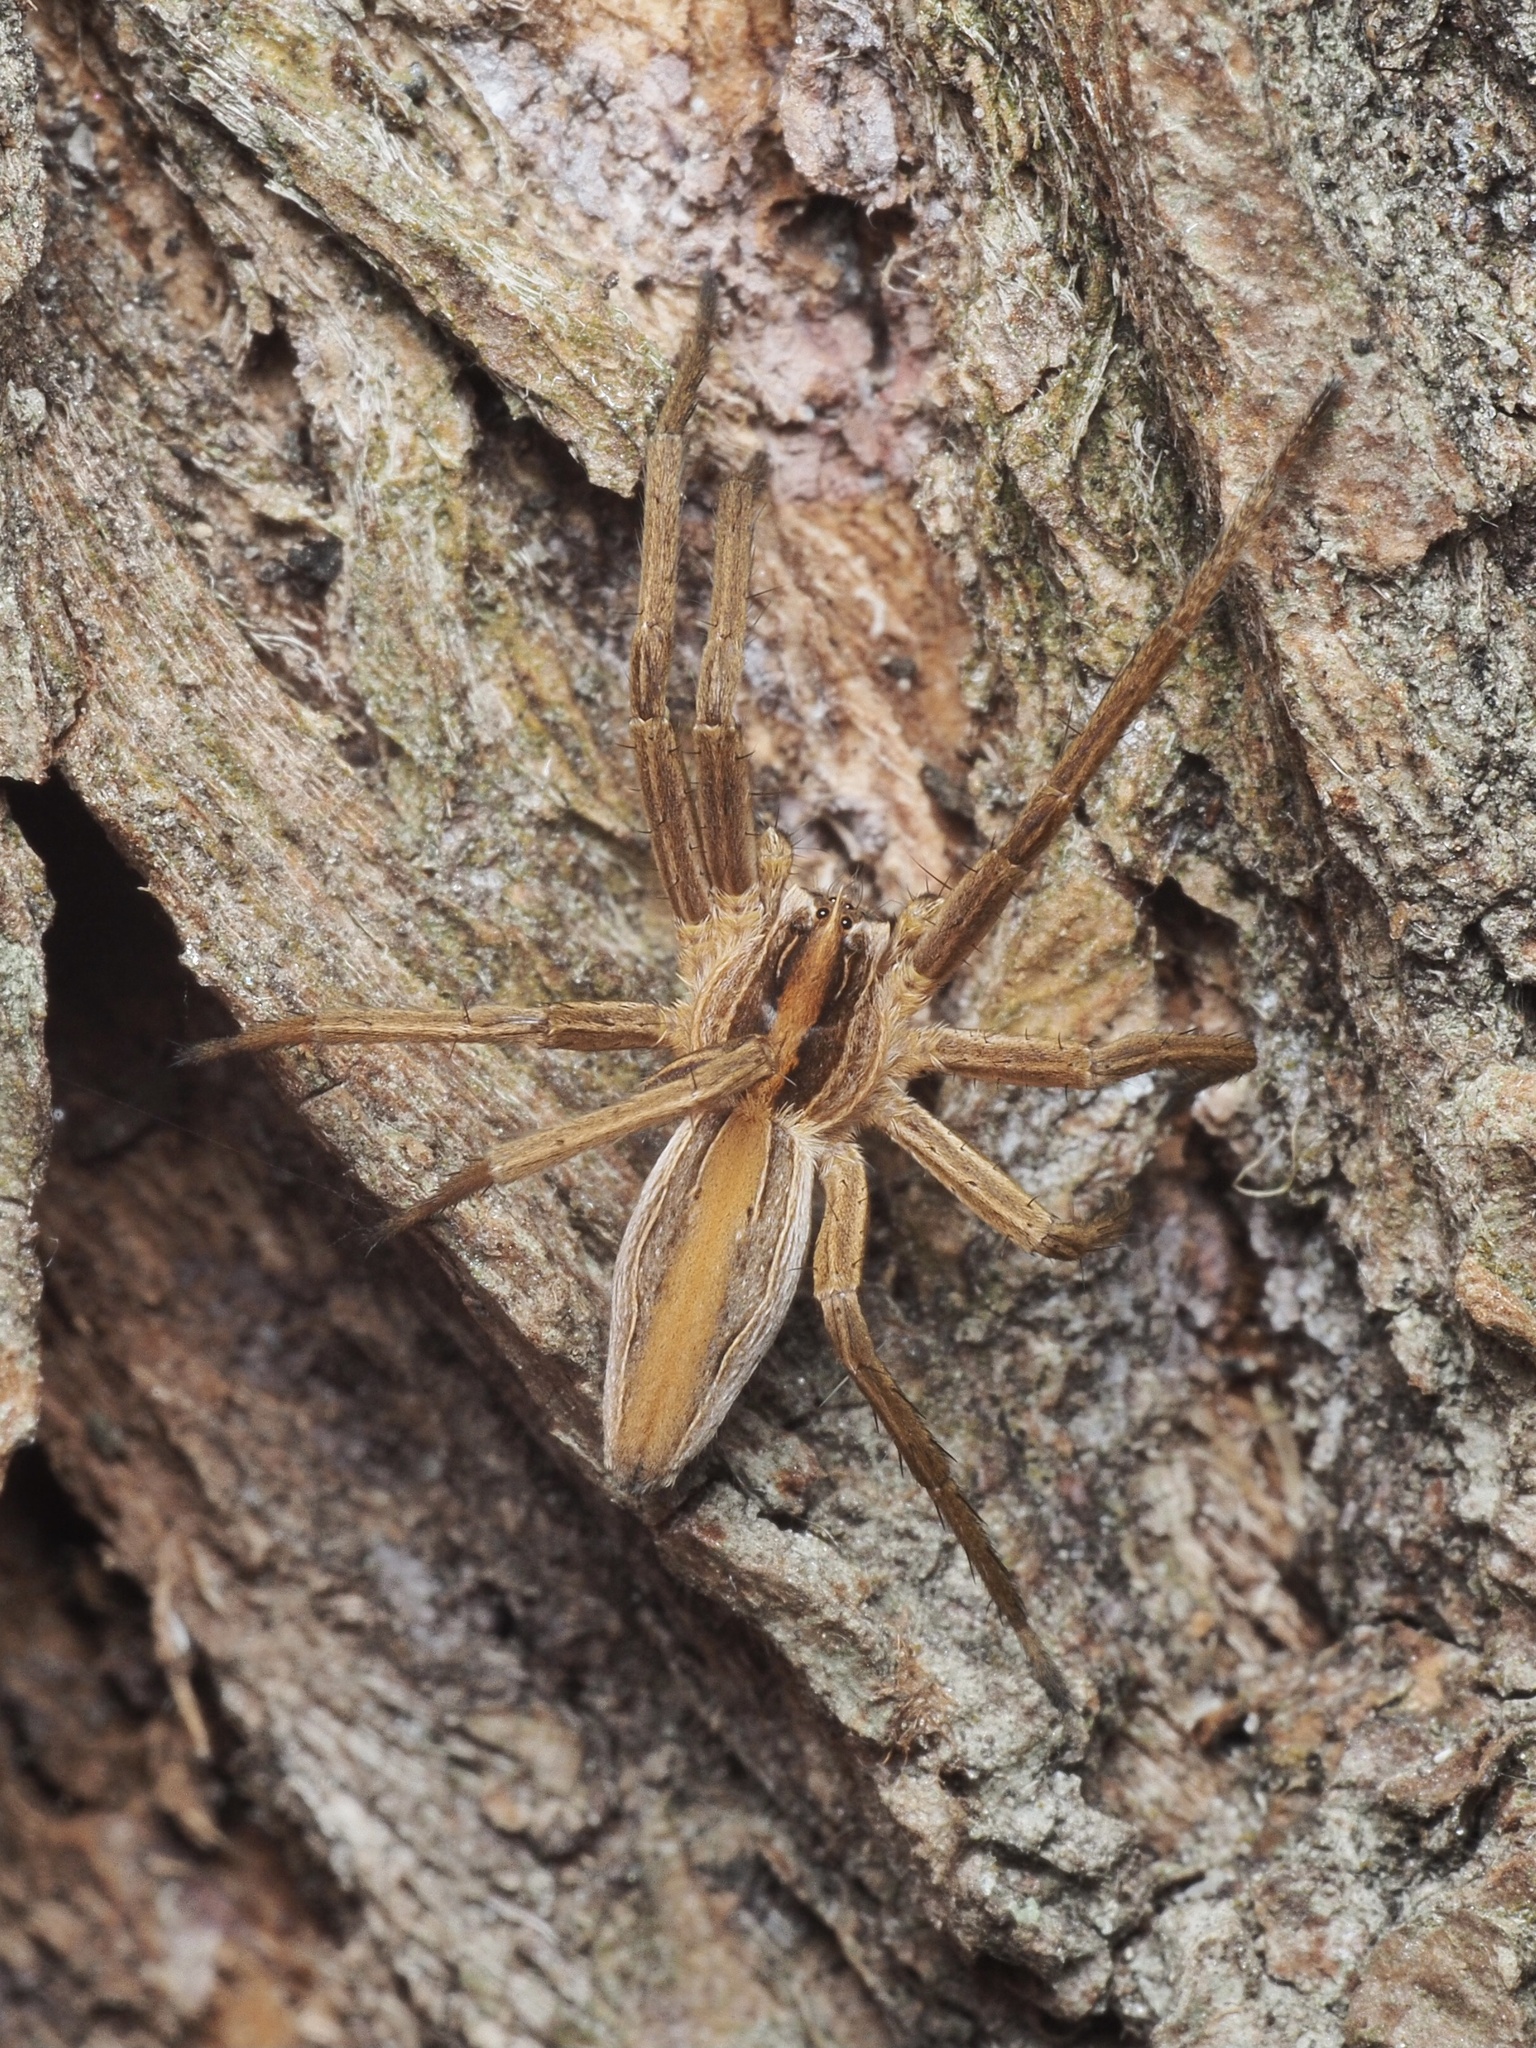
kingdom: Animalia
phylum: Arthropoda
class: Arachnida
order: Araneae
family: Pisauridae
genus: Pisaura
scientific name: Pisaura mirabilis
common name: Tent spider
